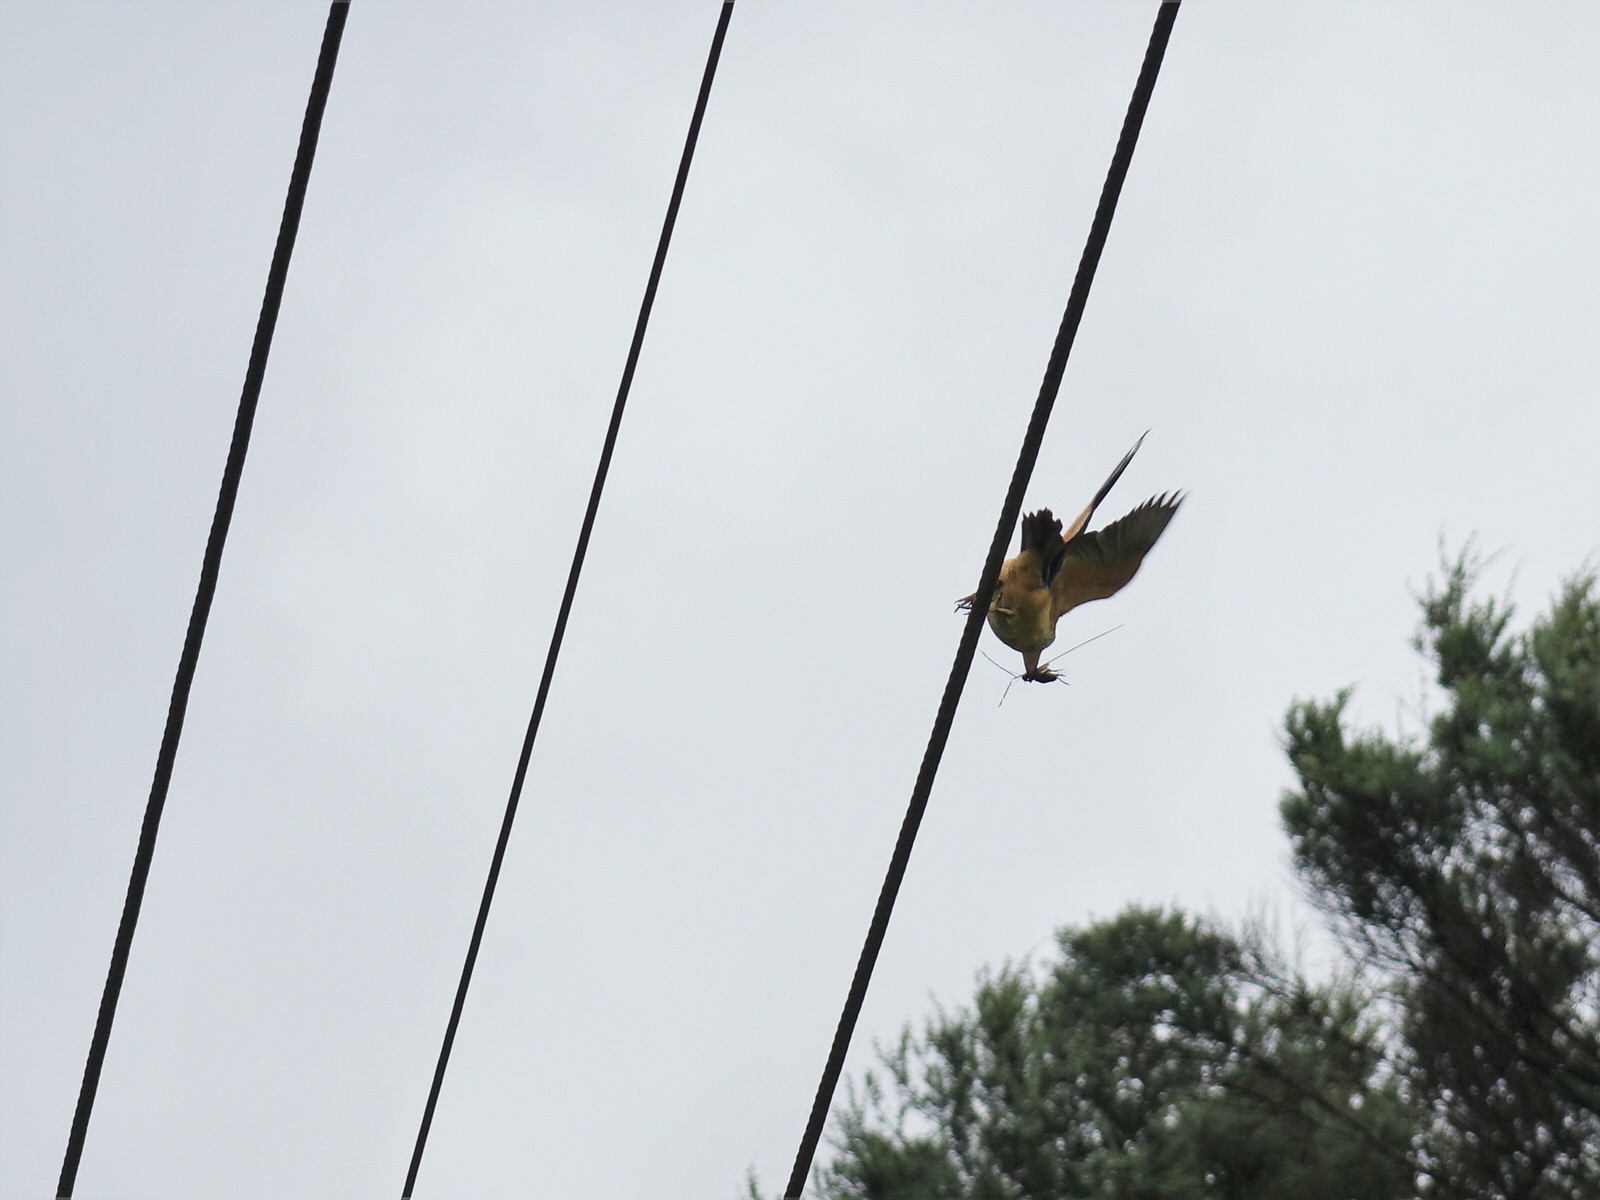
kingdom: Animalia
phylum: Chordata
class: Aves
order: Coraciiformes
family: Alcedinidae
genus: Todiramphus
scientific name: Todiramphus sanctus
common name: Sacred kingfisher
